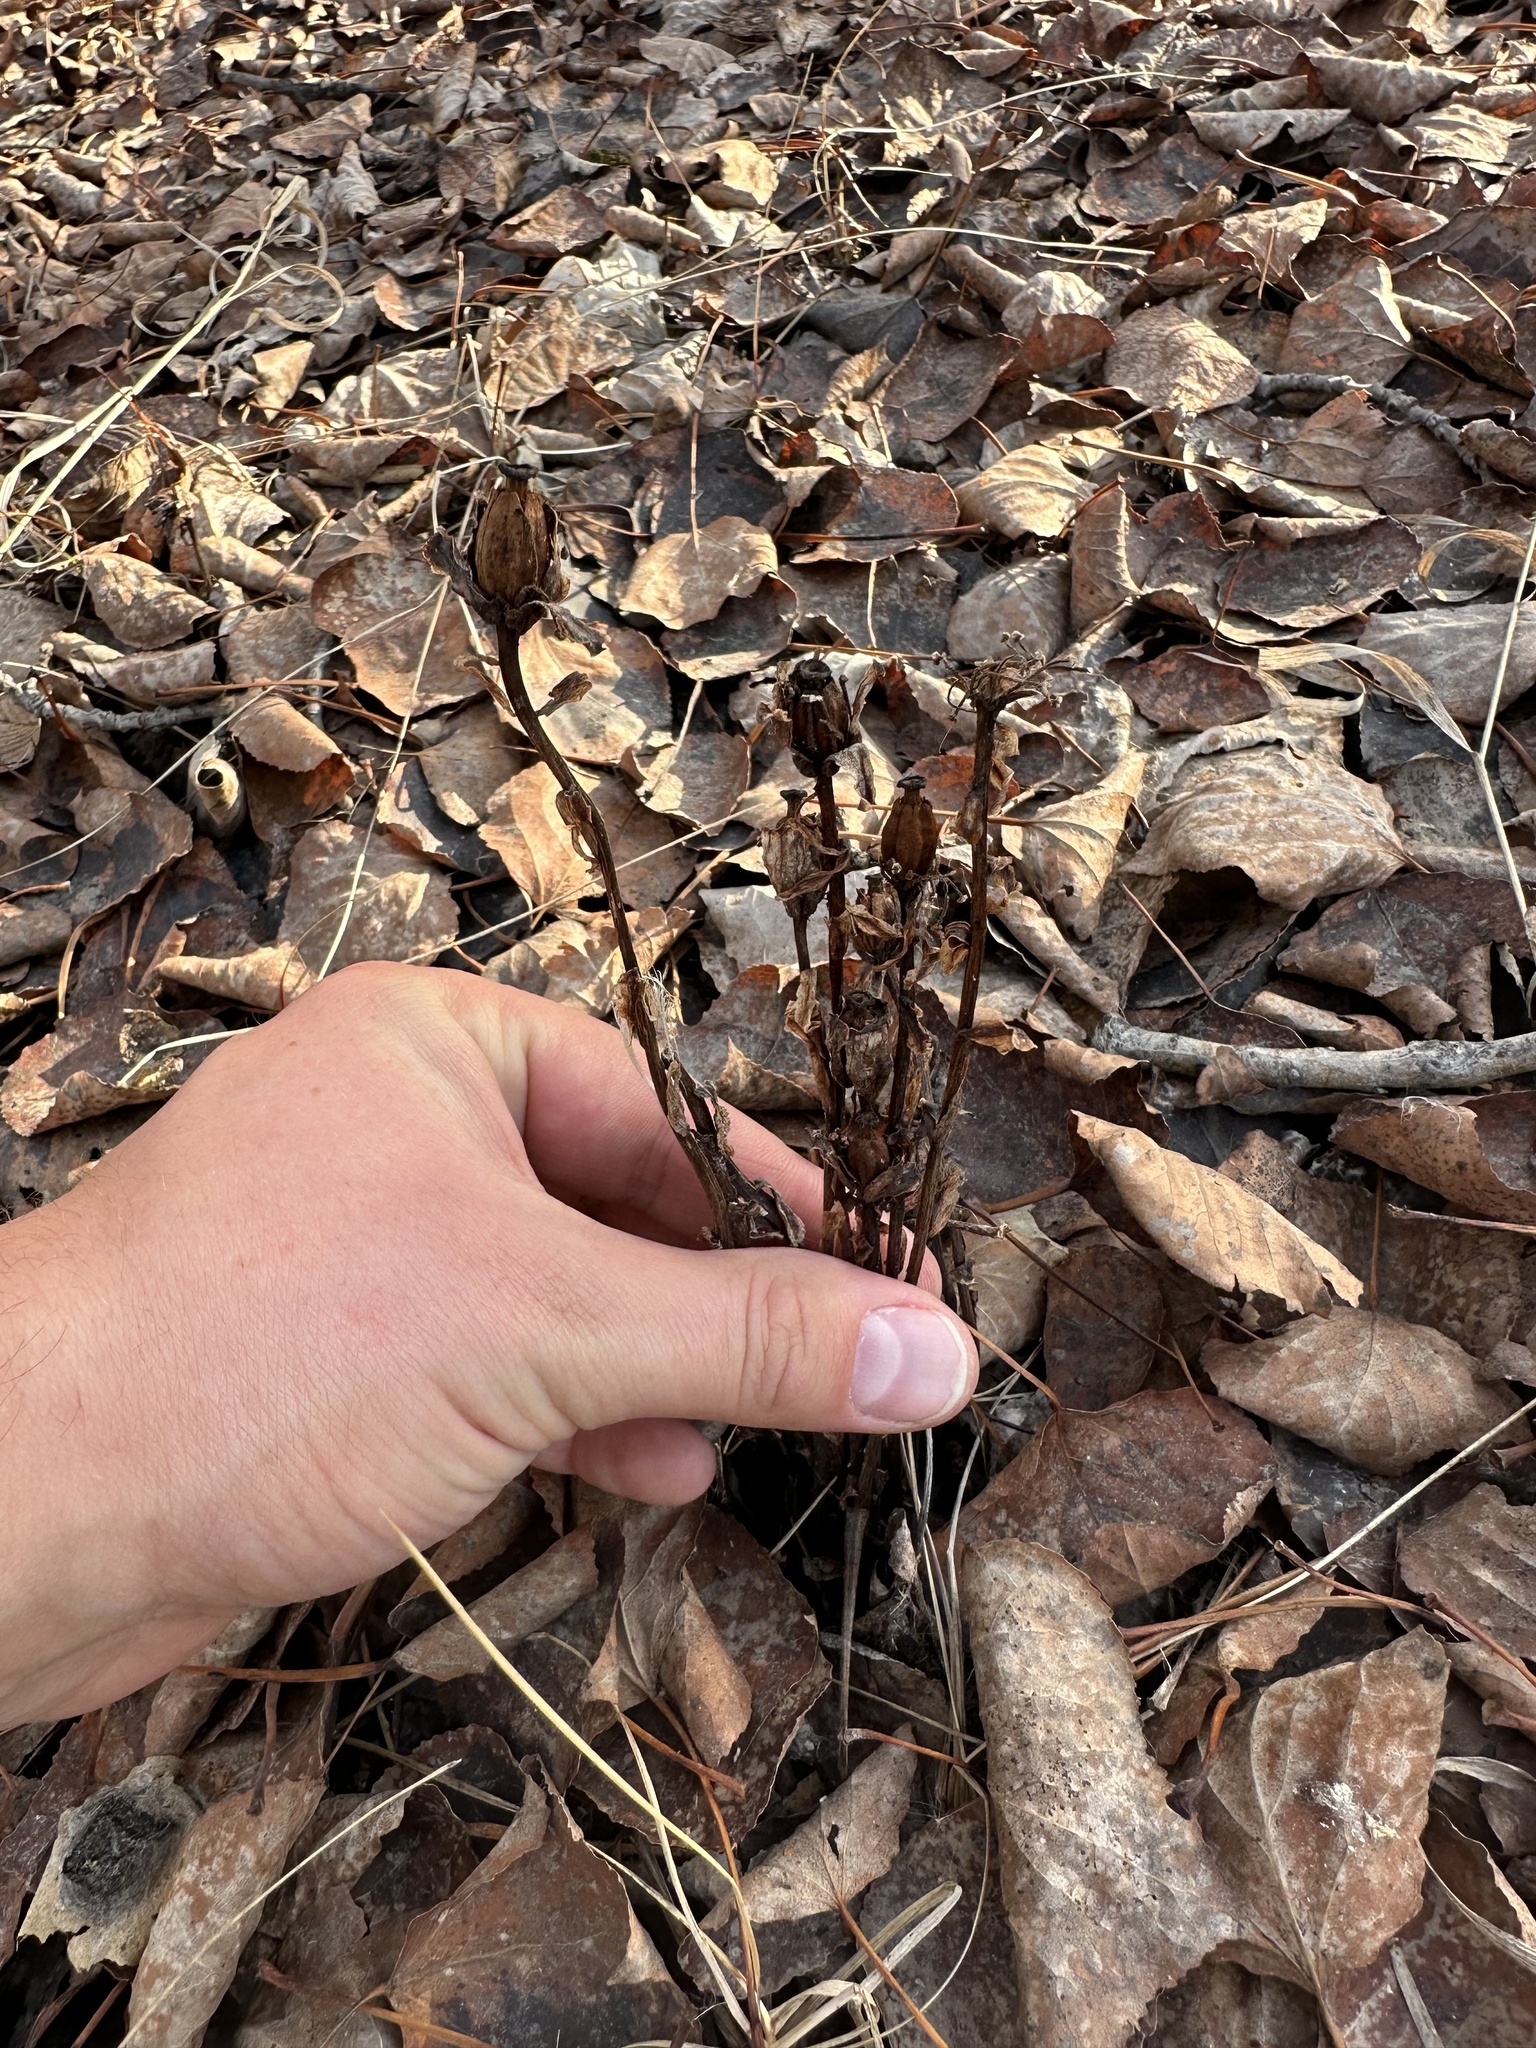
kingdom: Plantae
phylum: Tracheophyta
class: Magnoliopsida
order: Ericales
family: Ericaceae
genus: Monotropa
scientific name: Monotropa uniflora
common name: Convulsion root
